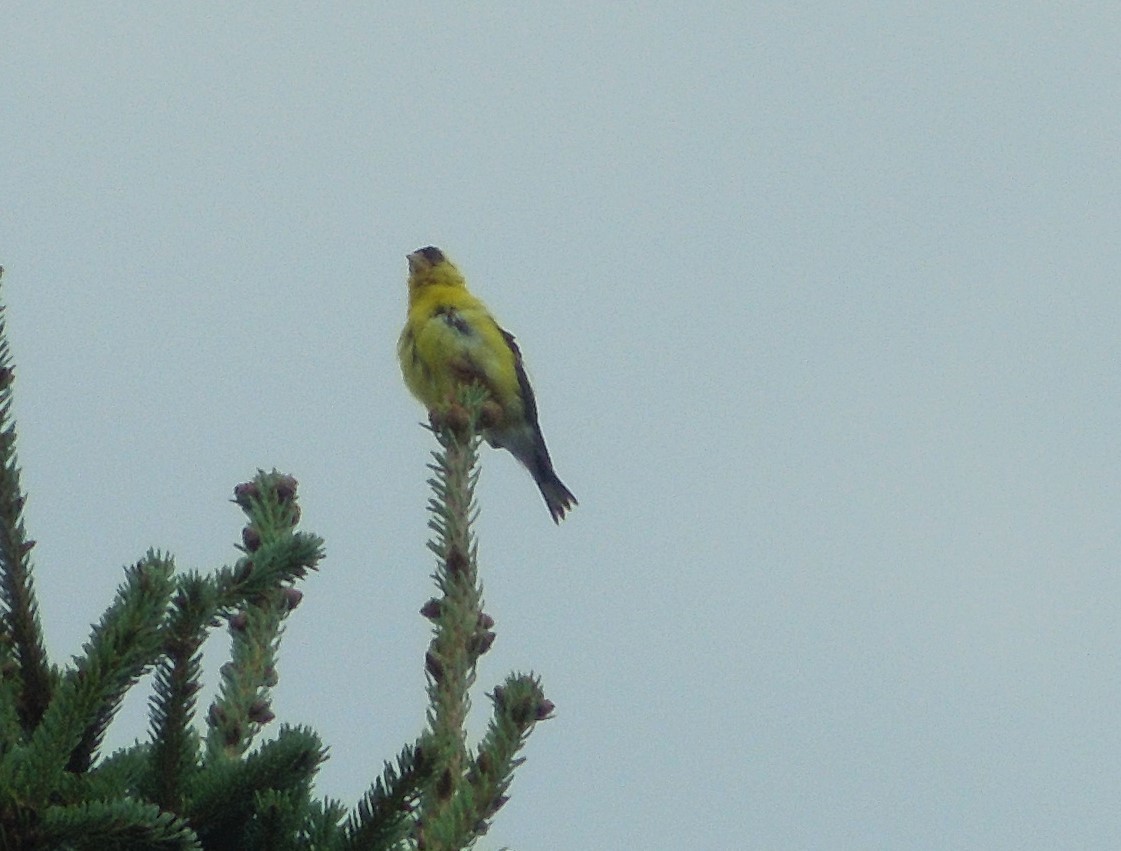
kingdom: Animalia
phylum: Chordata
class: Aves
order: Passeriformes
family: Fringillidae
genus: Spinus
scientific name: Spinus tristis
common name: American goldfinch
